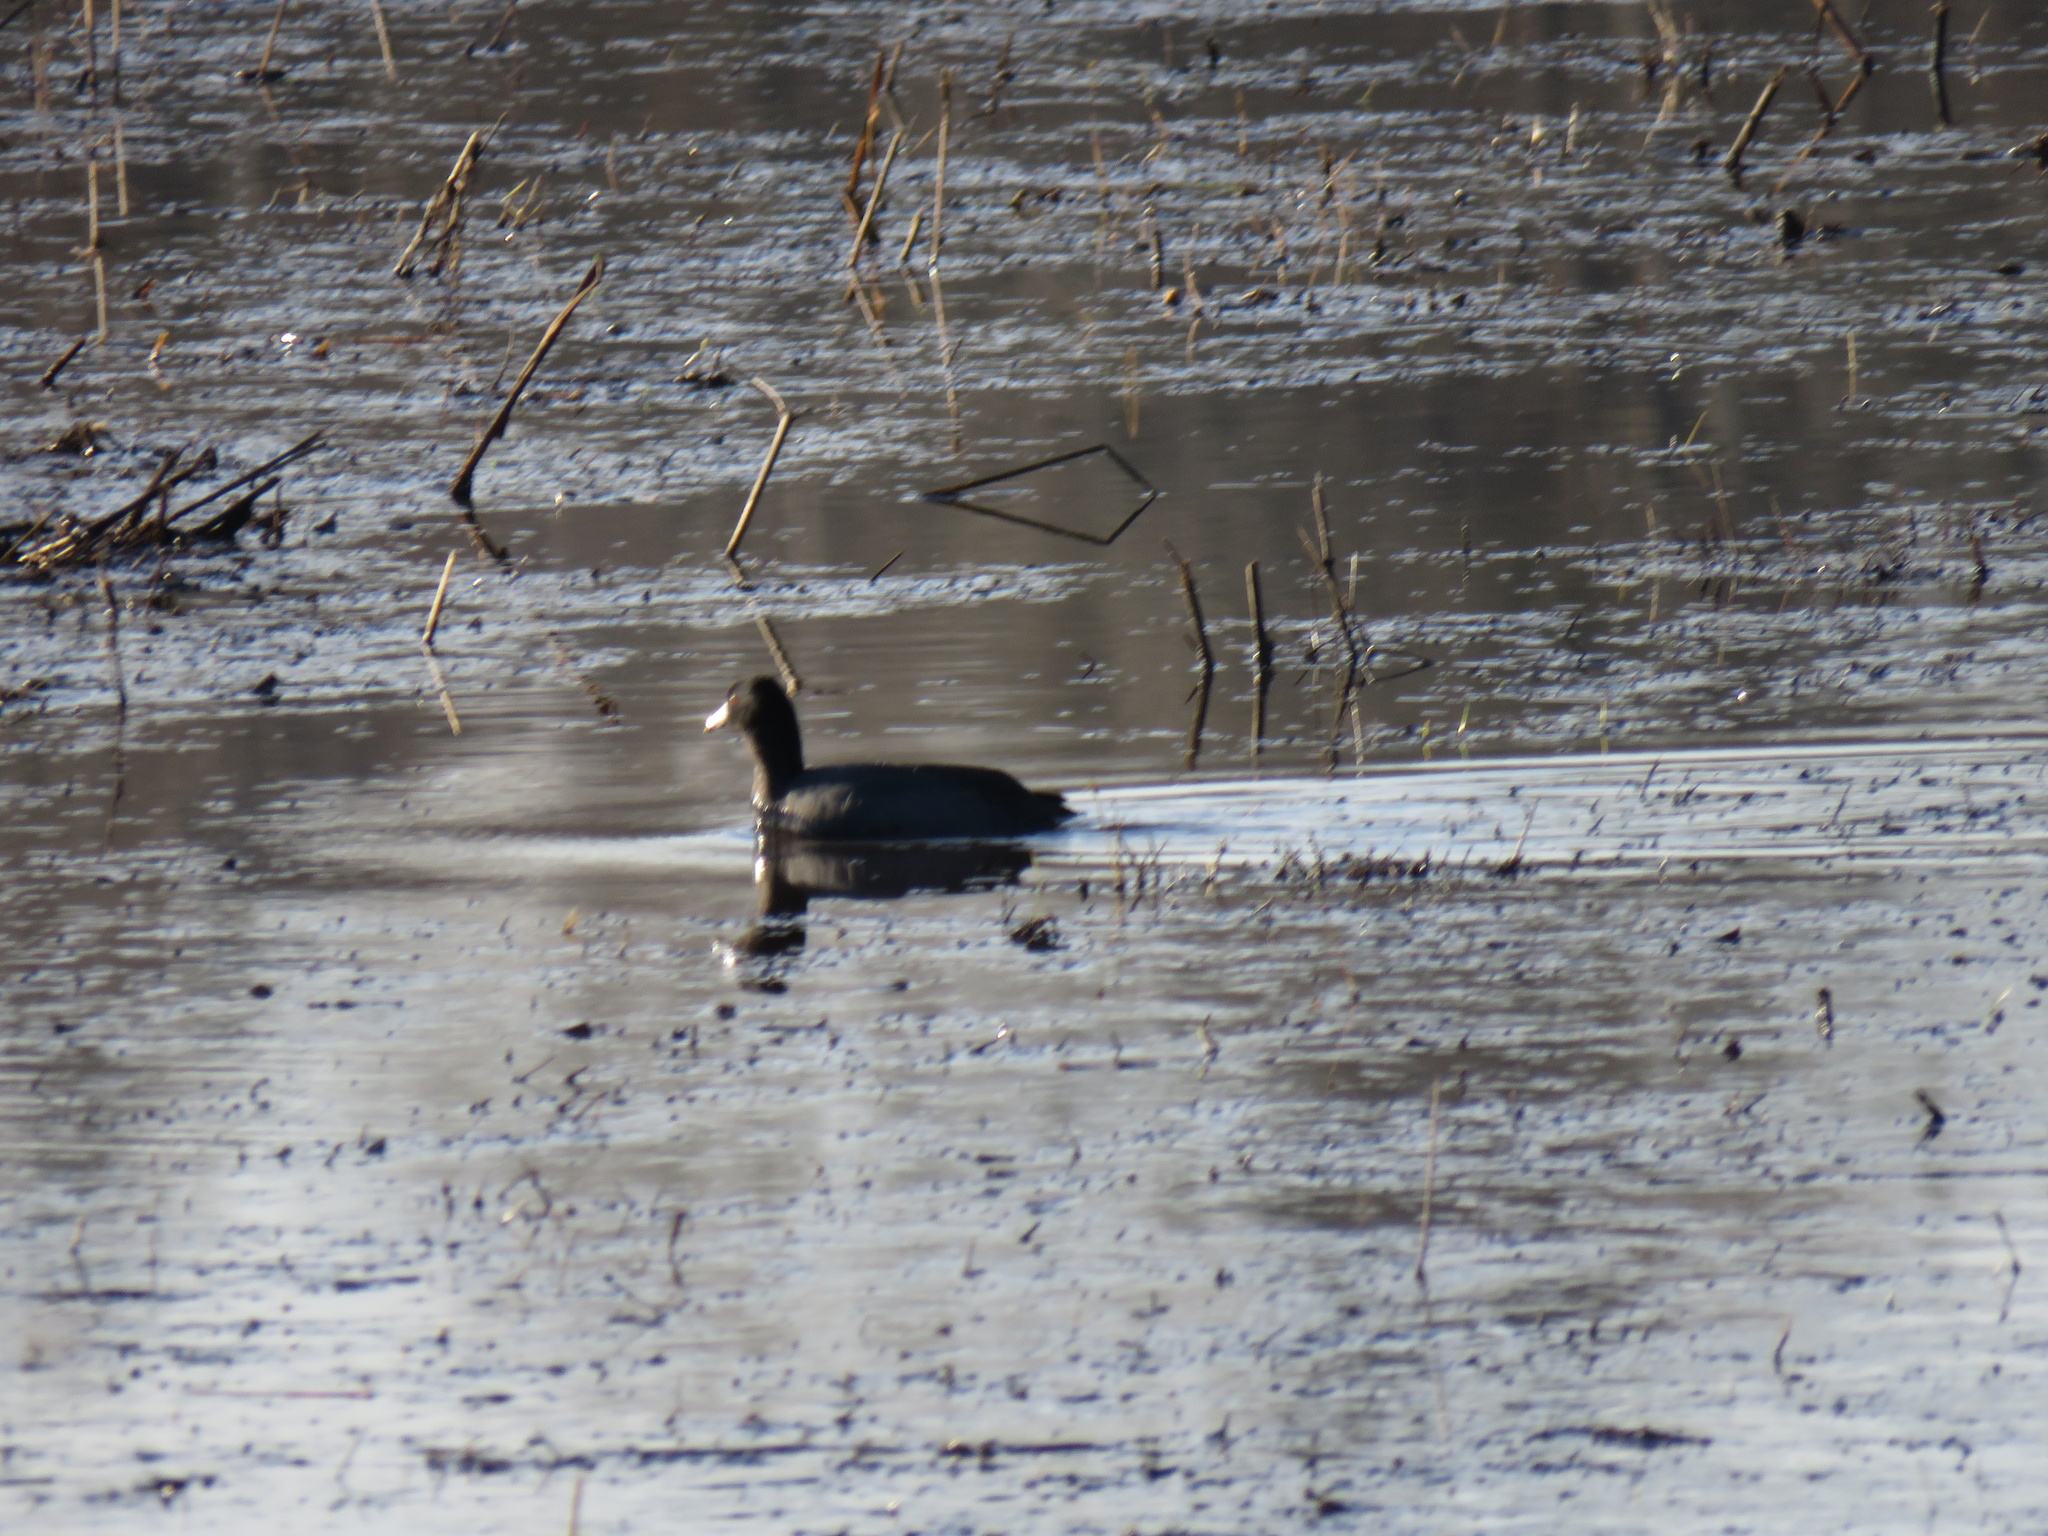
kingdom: Animalia
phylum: Chordata
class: Aves
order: Gruiformes
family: Rallidae
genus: Fulica
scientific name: Fulica americana
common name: American coot
